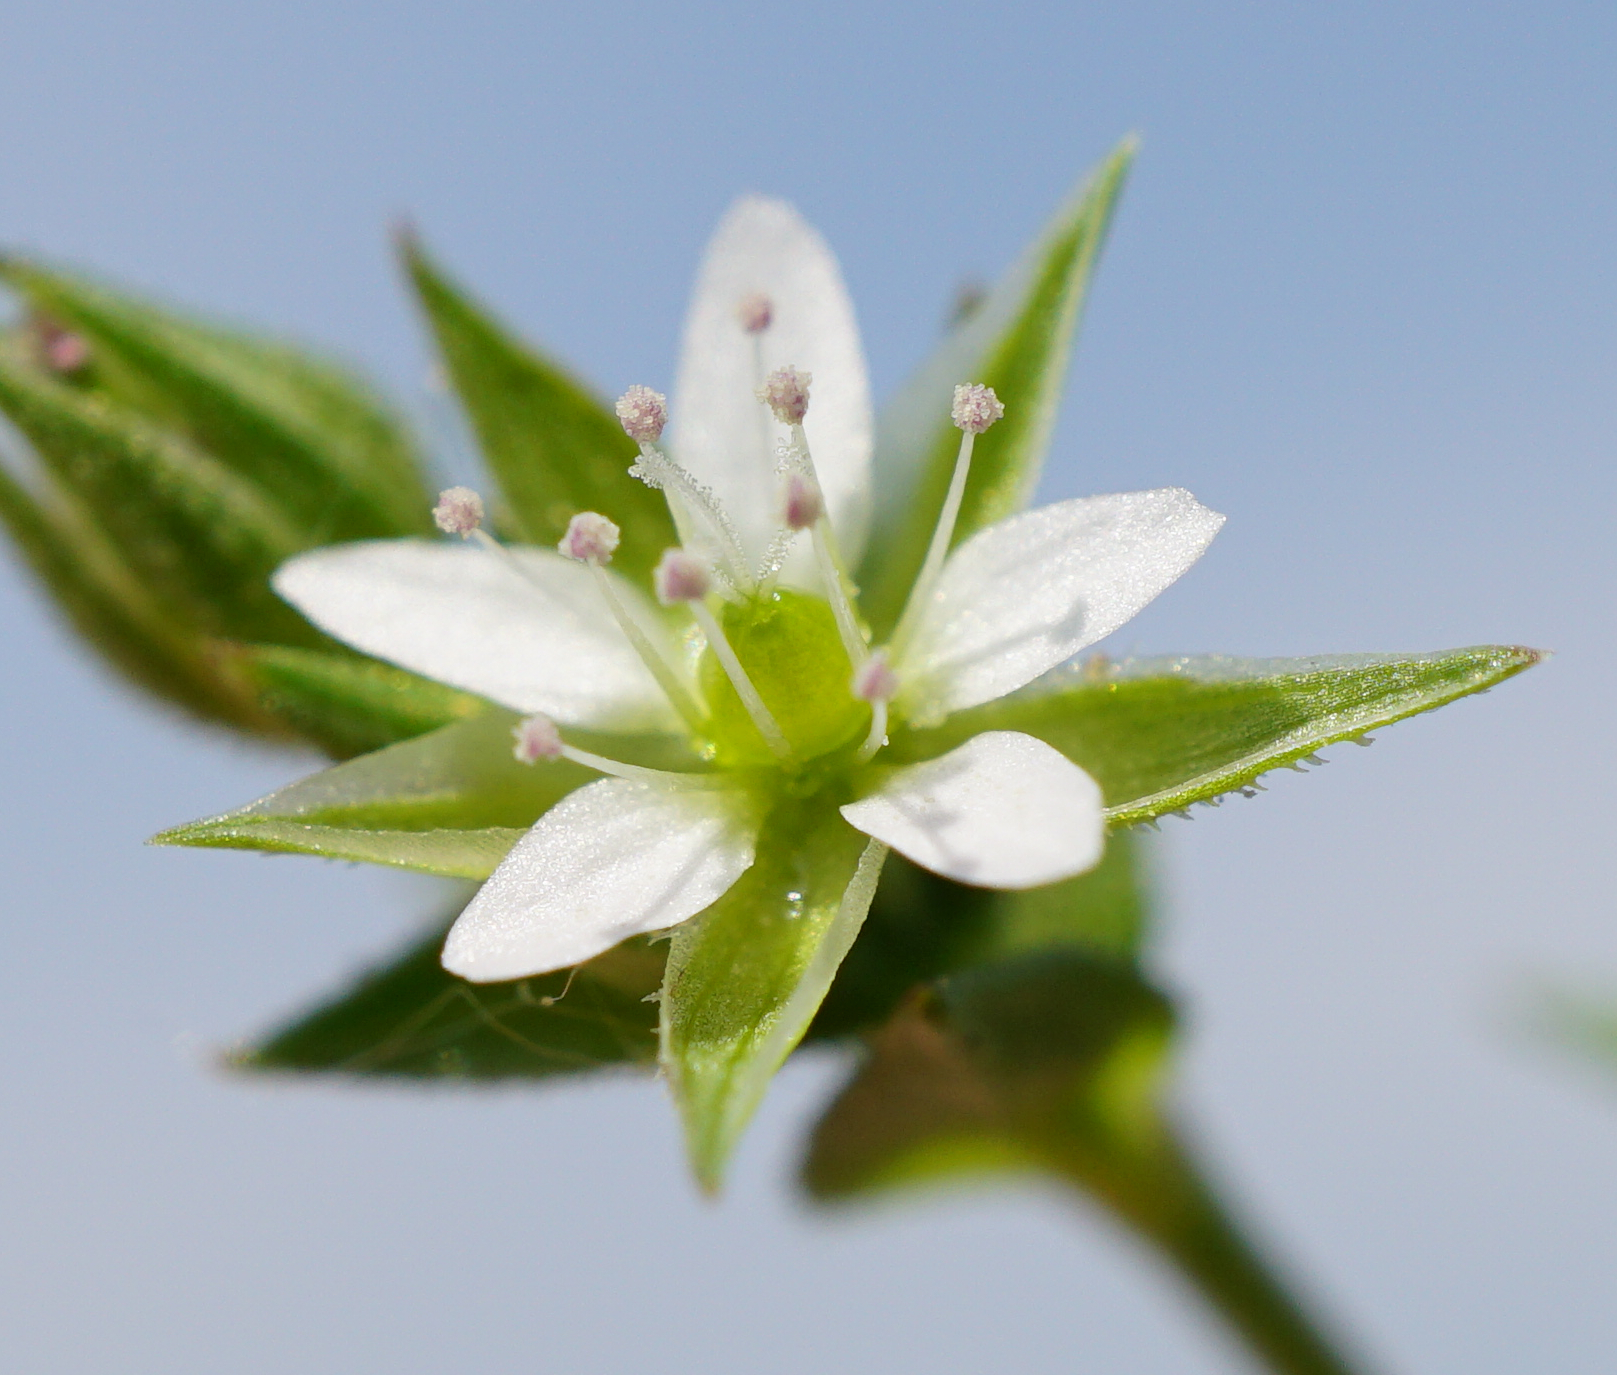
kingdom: Plantae
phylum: Tracheophyta
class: Magnoliopsida
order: Caryophyllales
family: Caryophyllaceae
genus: Arenaria
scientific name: Arenaria serpyllifolia
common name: Thyme-leaved sandwort
